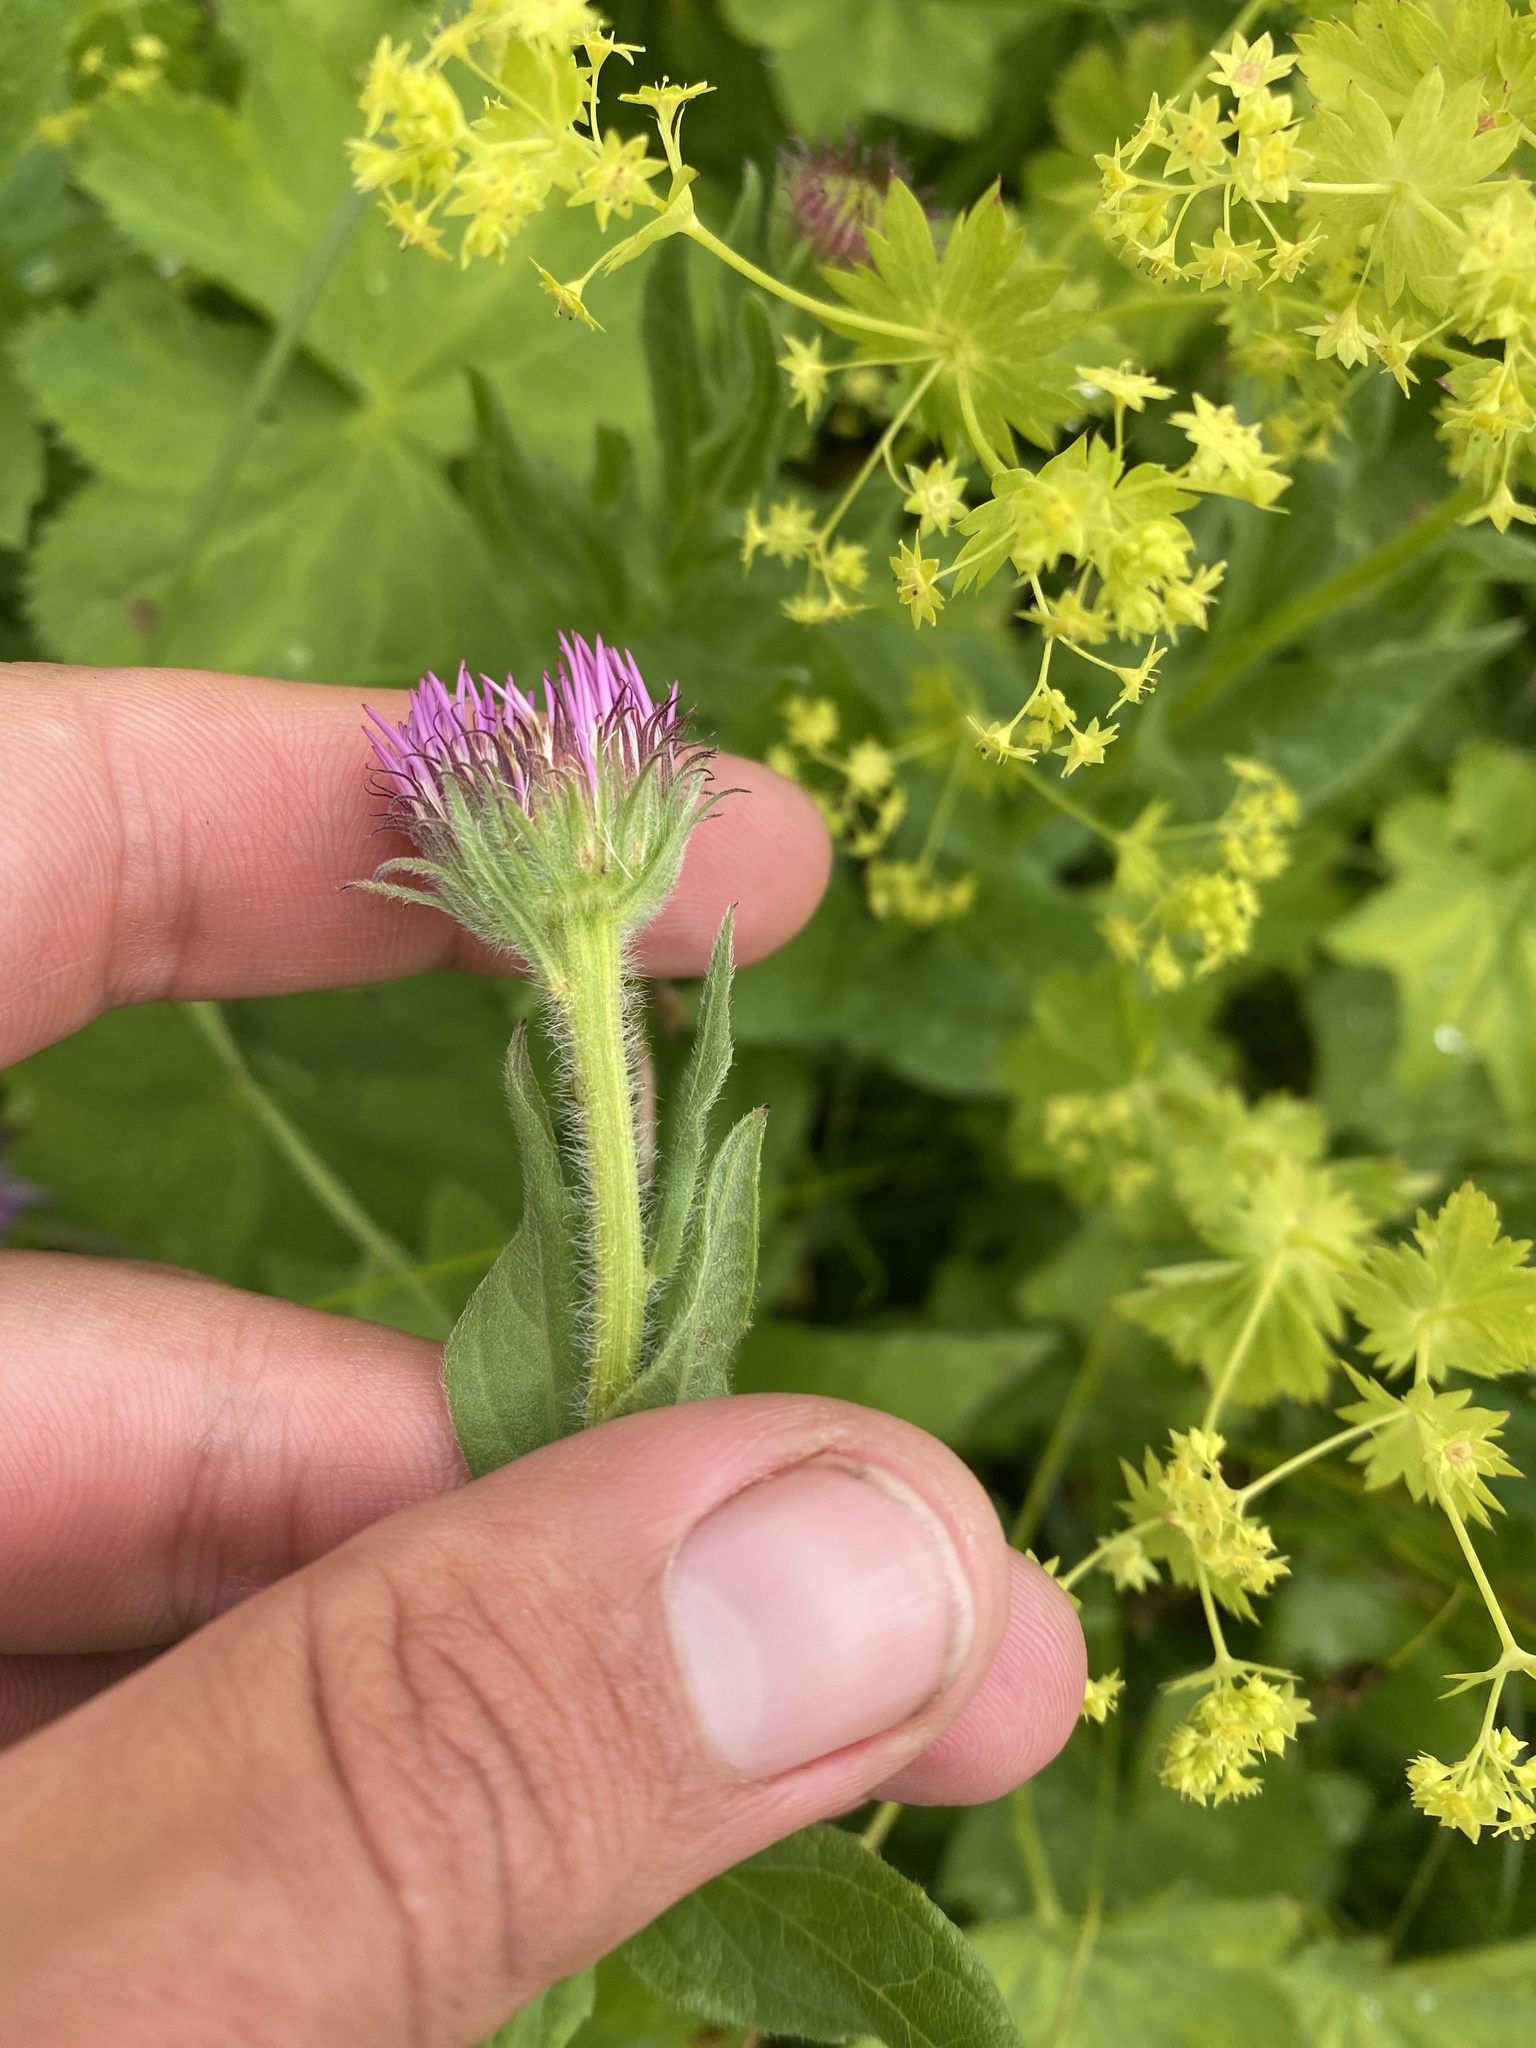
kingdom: Plantae
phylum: Tracheophyta
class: Magnoliopsida
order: Asterales
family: Asteraceae
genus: Kemulariella
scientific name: Kemulariella caucasica
